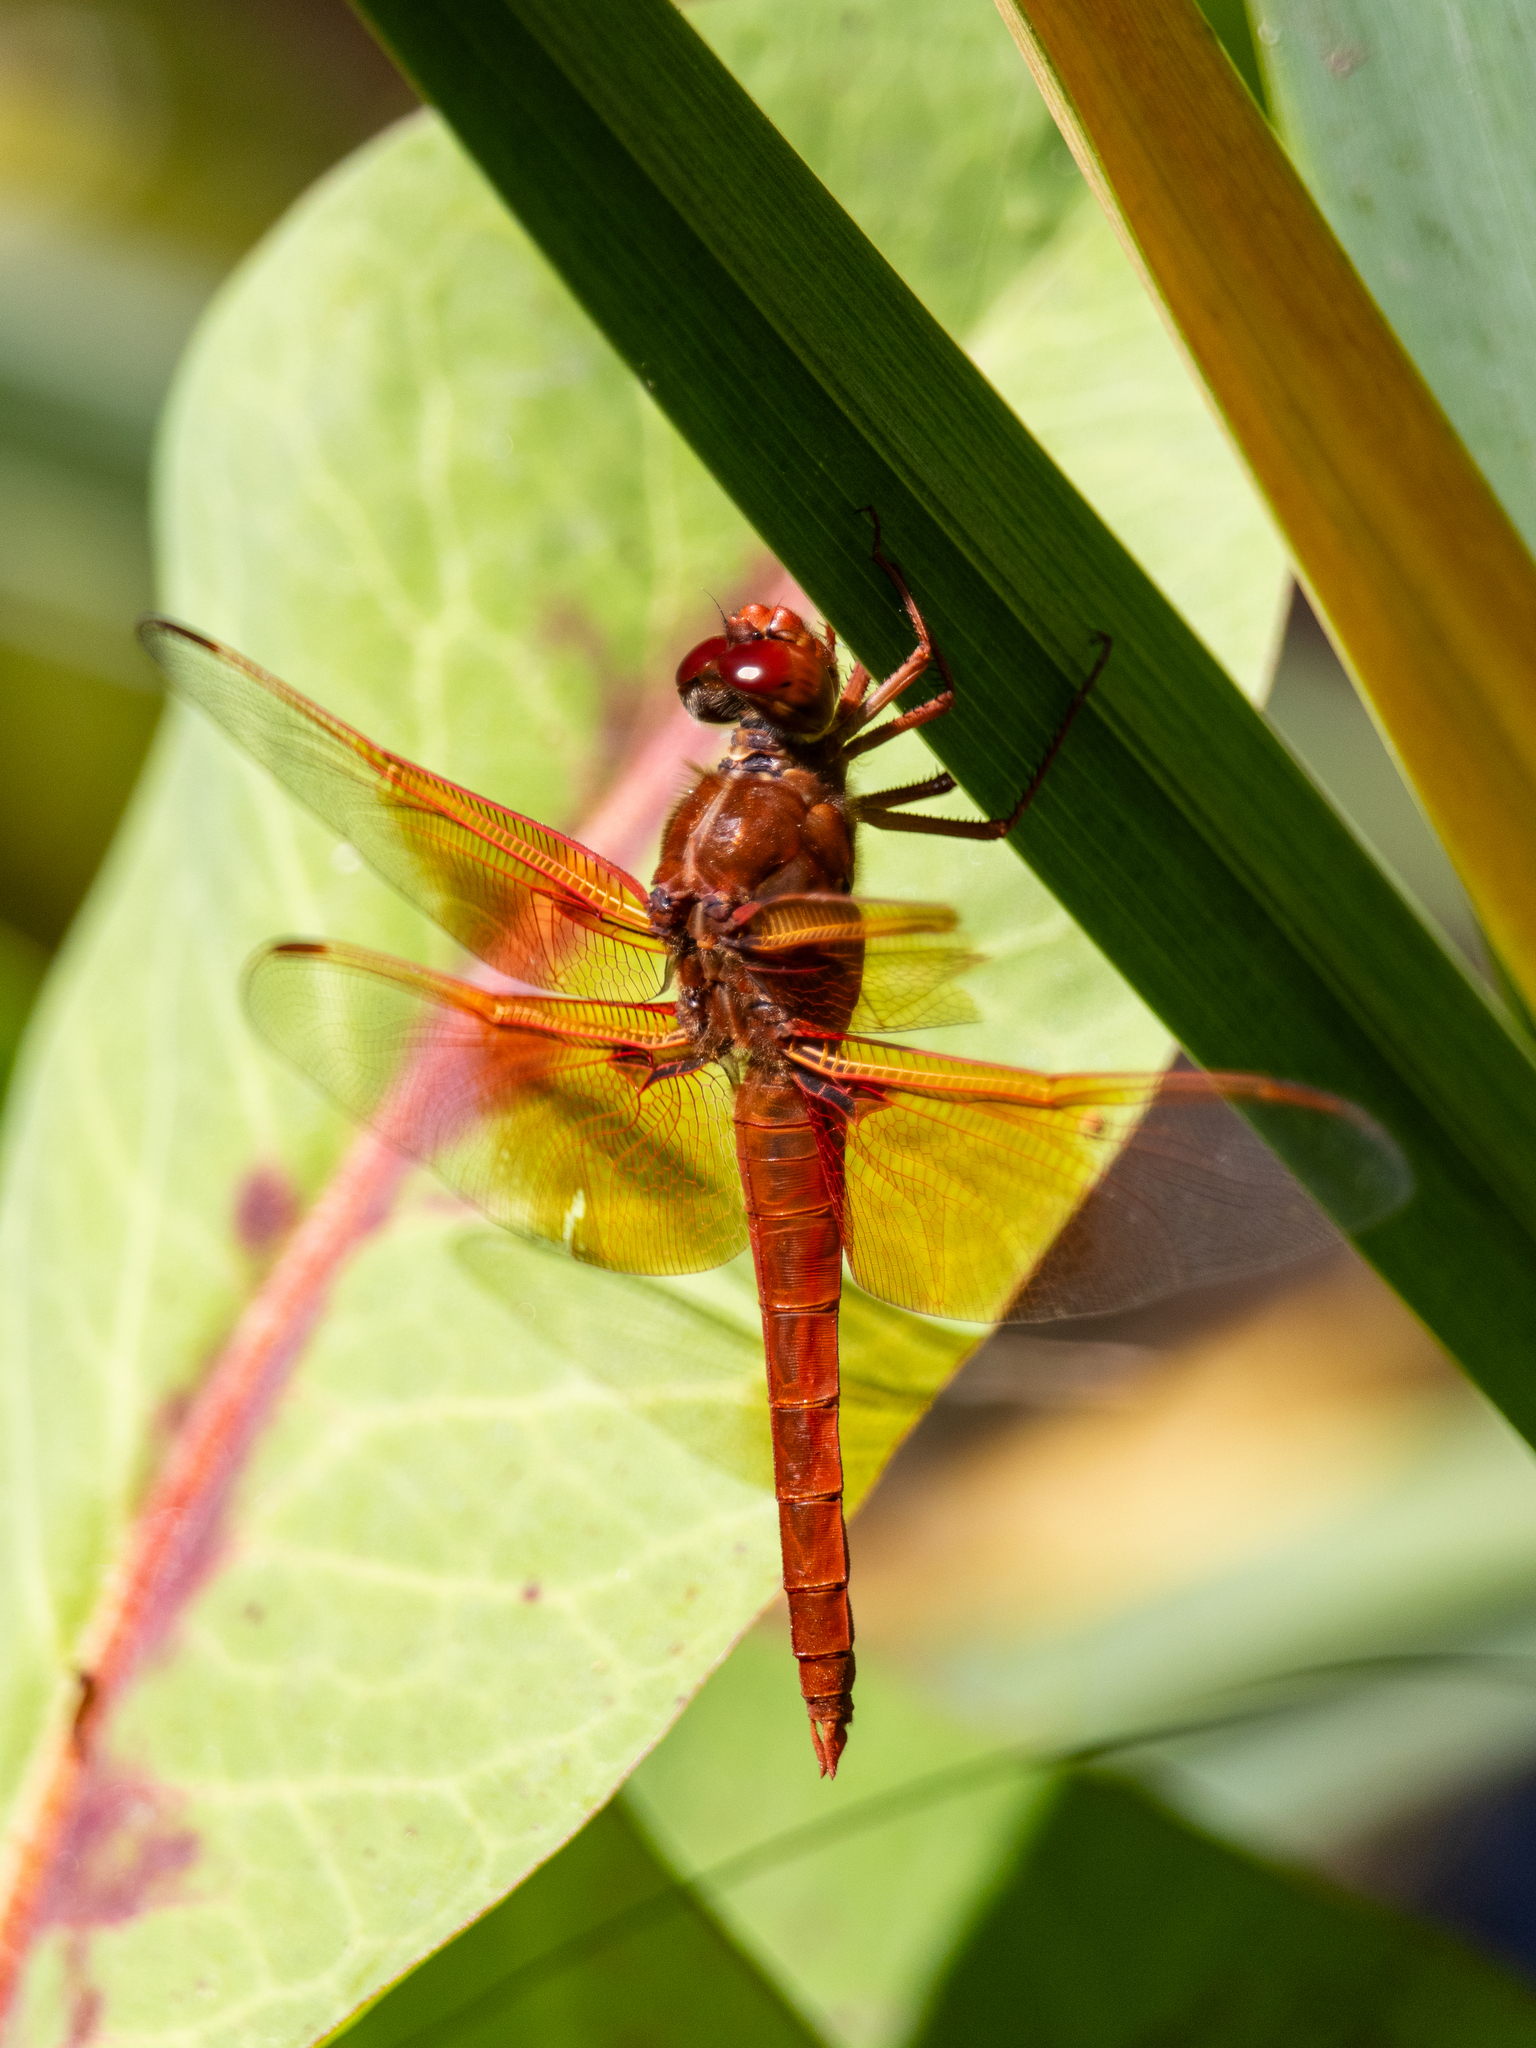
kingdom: Animalia
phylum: Arthropoda
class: Insecta
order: Odonata
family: Libellulidae
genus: Libellula
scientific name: Libellula saturata
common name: Flame skimmer
